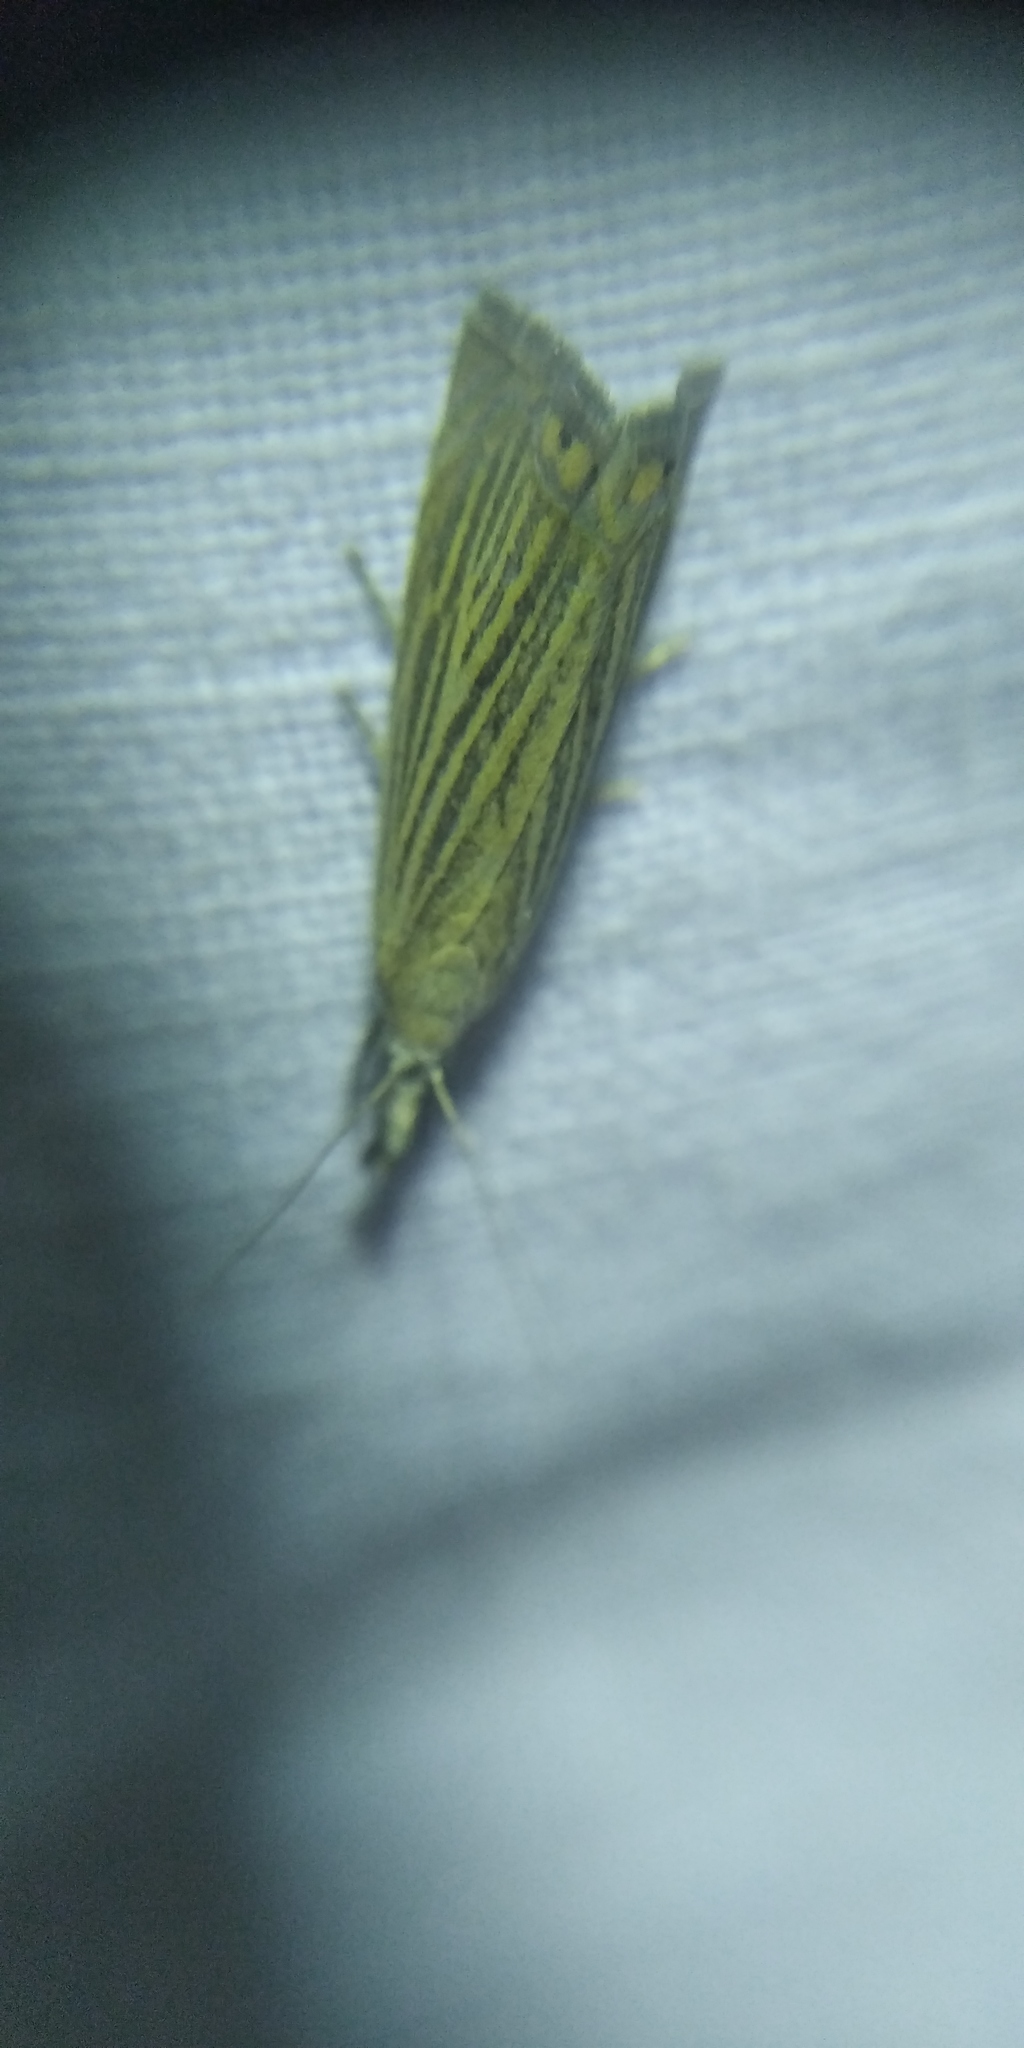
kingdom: Animalia
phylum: Arthropoda
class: Insecta
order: Lepidoptera
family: Crambidae
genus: Chrysoteuchia
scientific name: Chrysoteuchia culmella
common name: Garden grass-veneer
